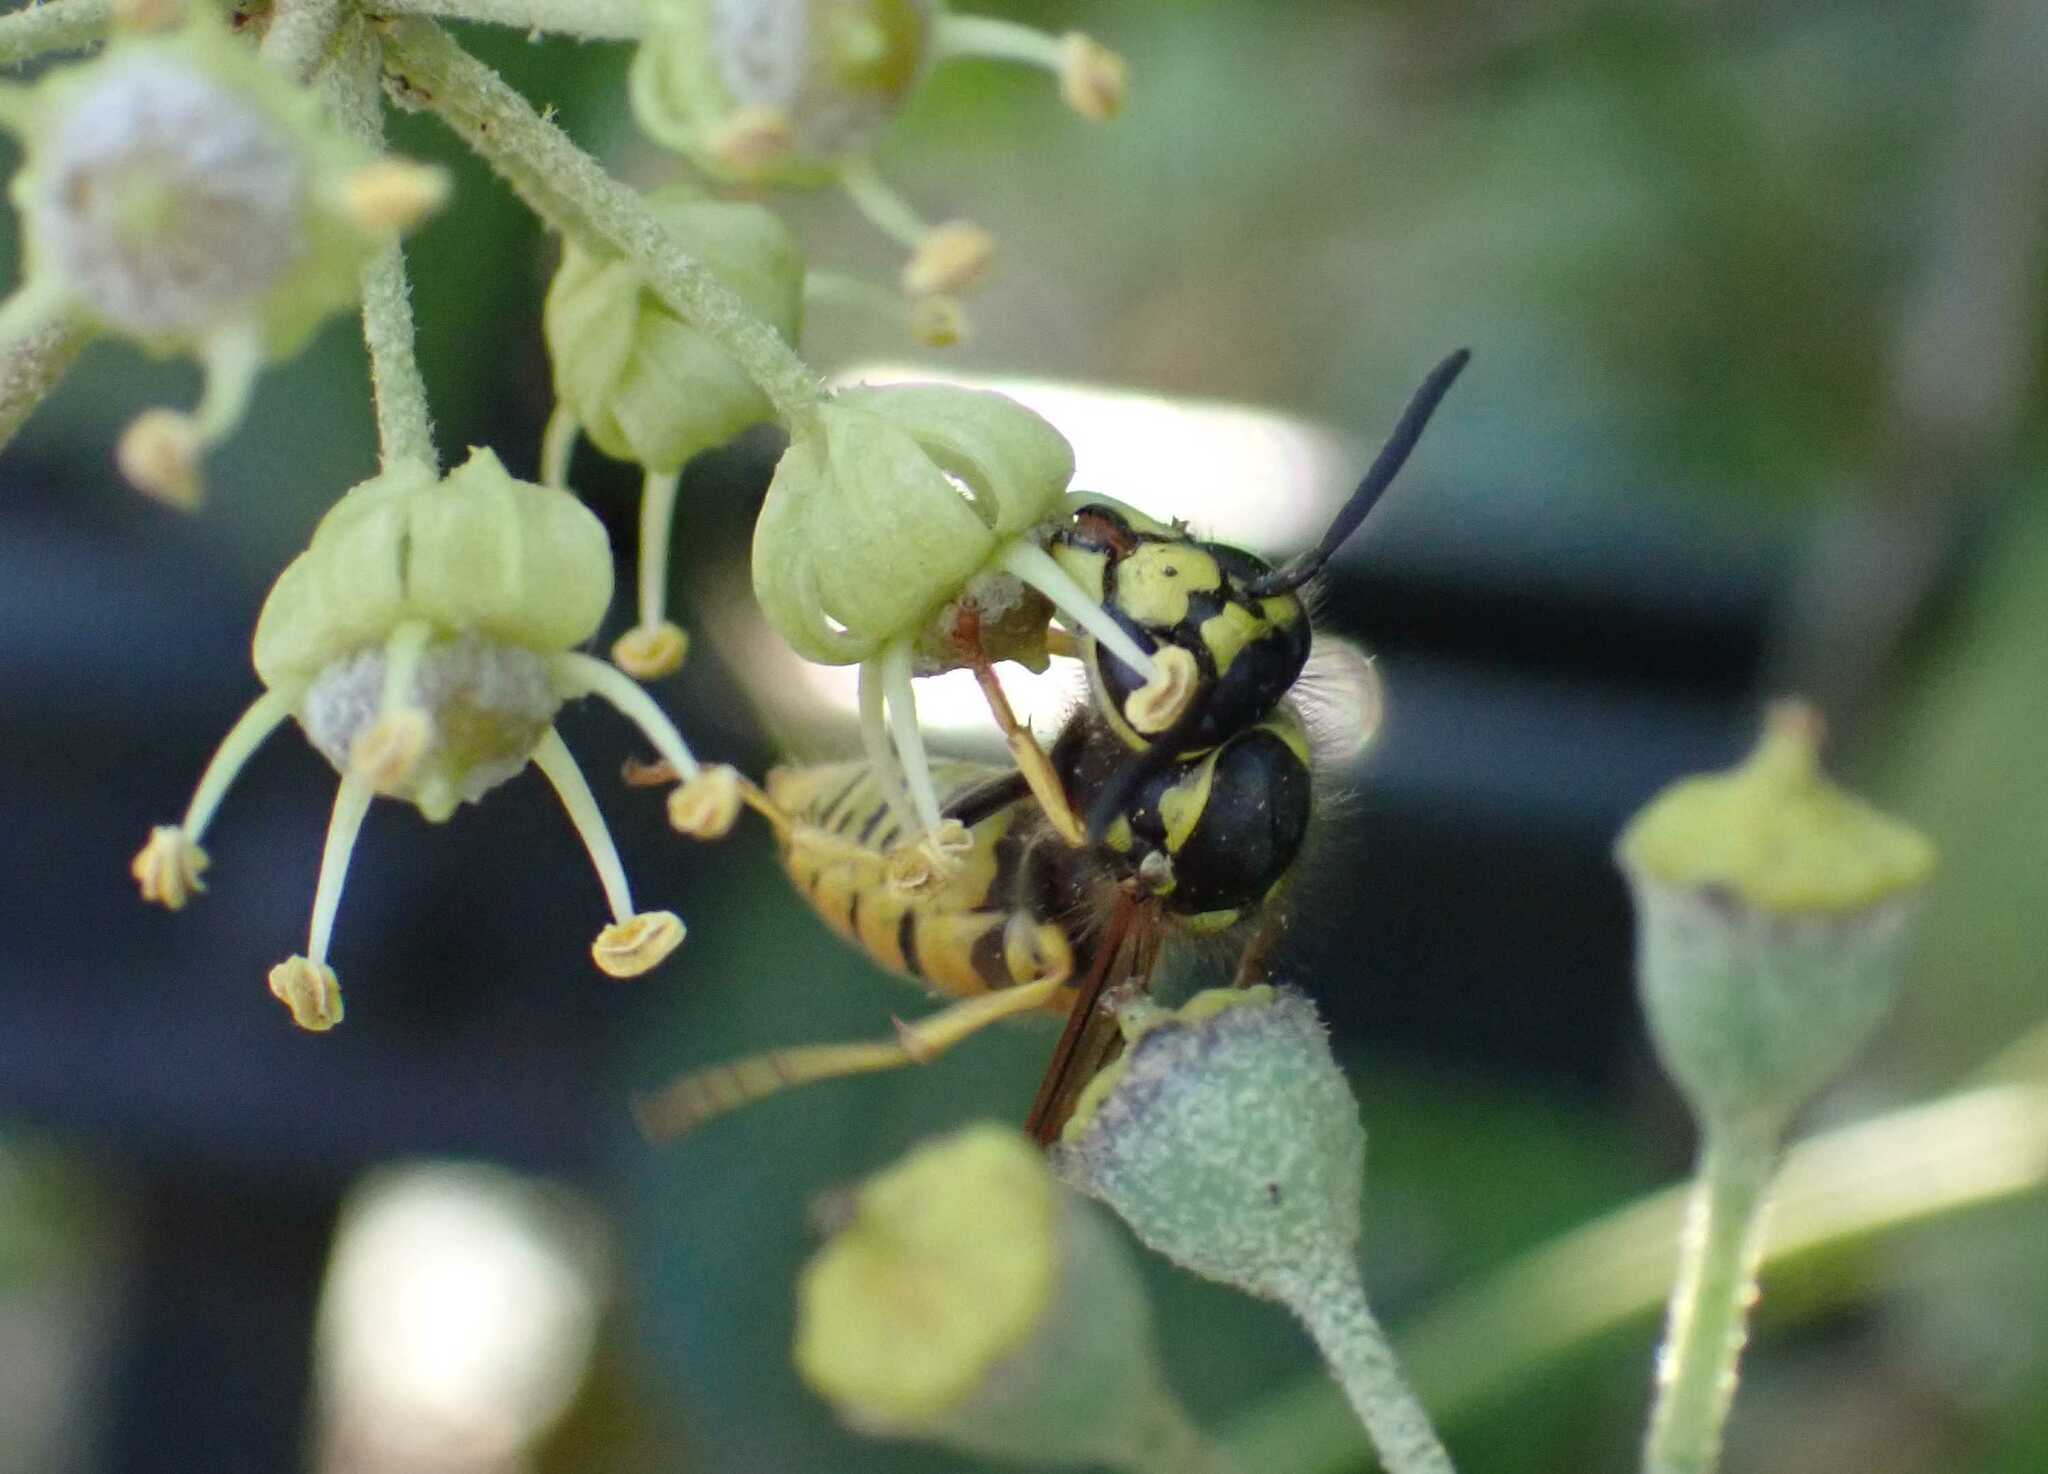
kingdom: Animalia
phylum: Arthropoda
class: Insecta
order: Hymenoptera
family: Vespidae
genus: Vespula
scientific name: Vespula germanica
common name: German wasp
